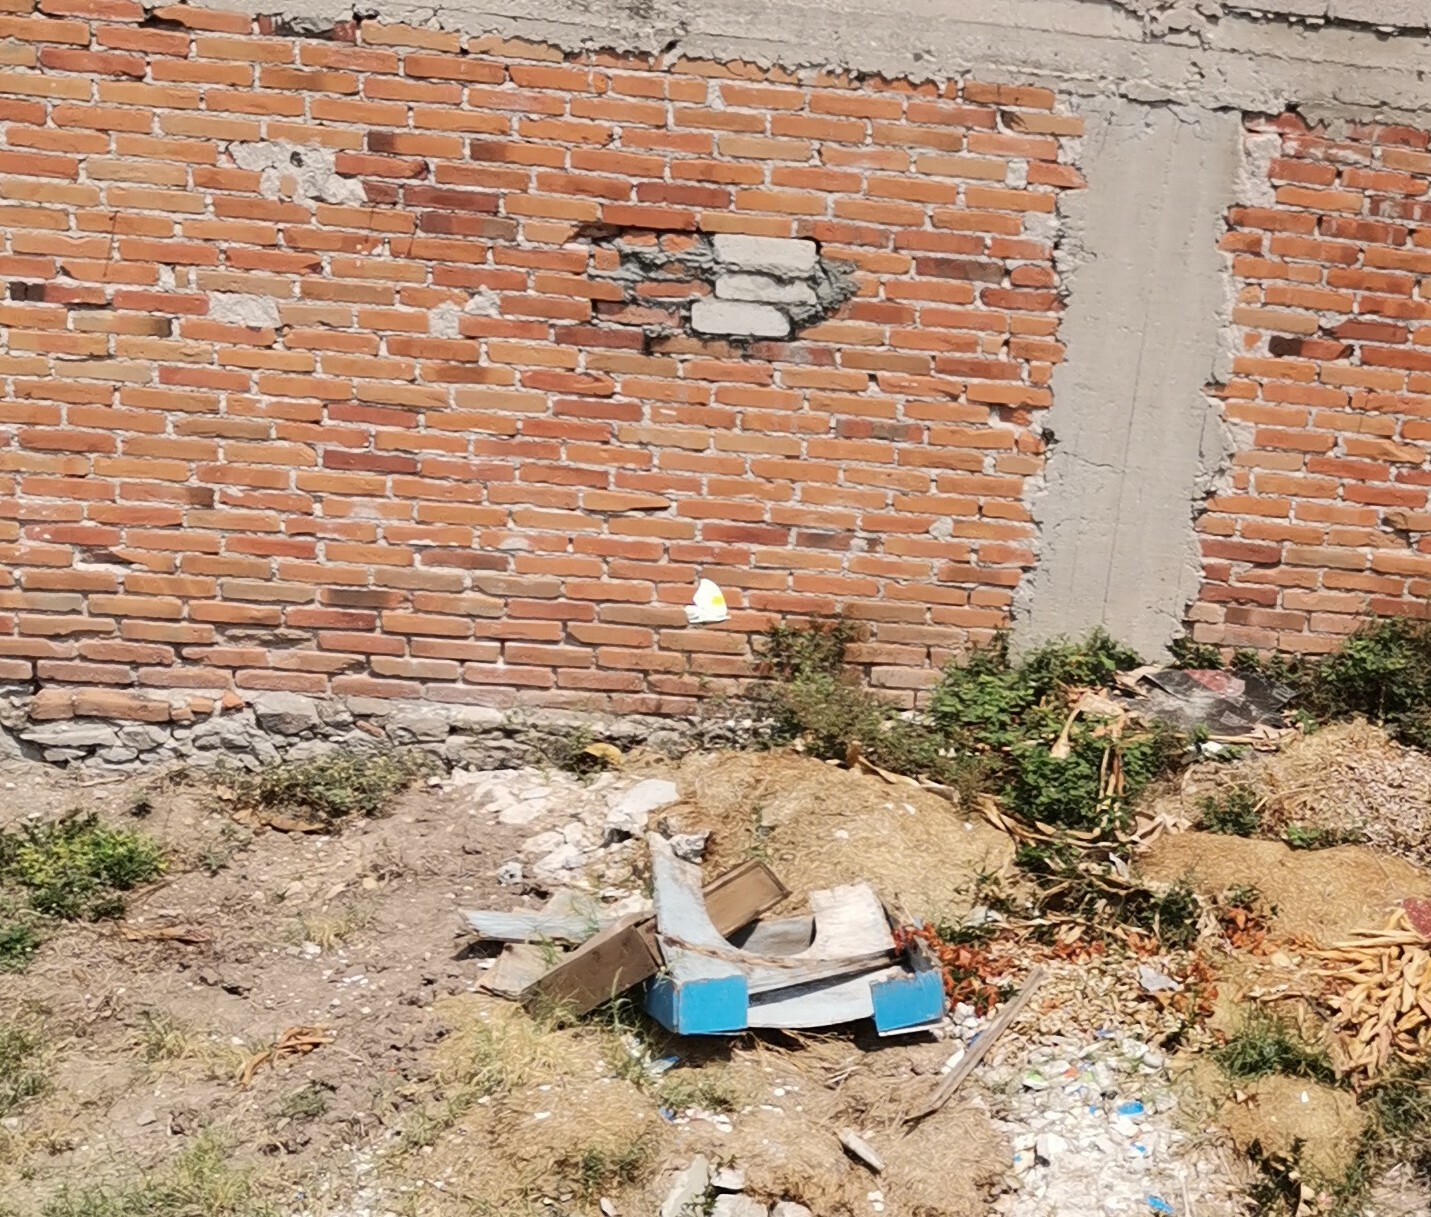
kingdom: Animalia
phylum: Arthropoda
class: Insecta
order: Lepidoptera
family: Pieridae
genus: Anteos
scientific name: Anteos clorinde
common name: White angled sulphur
